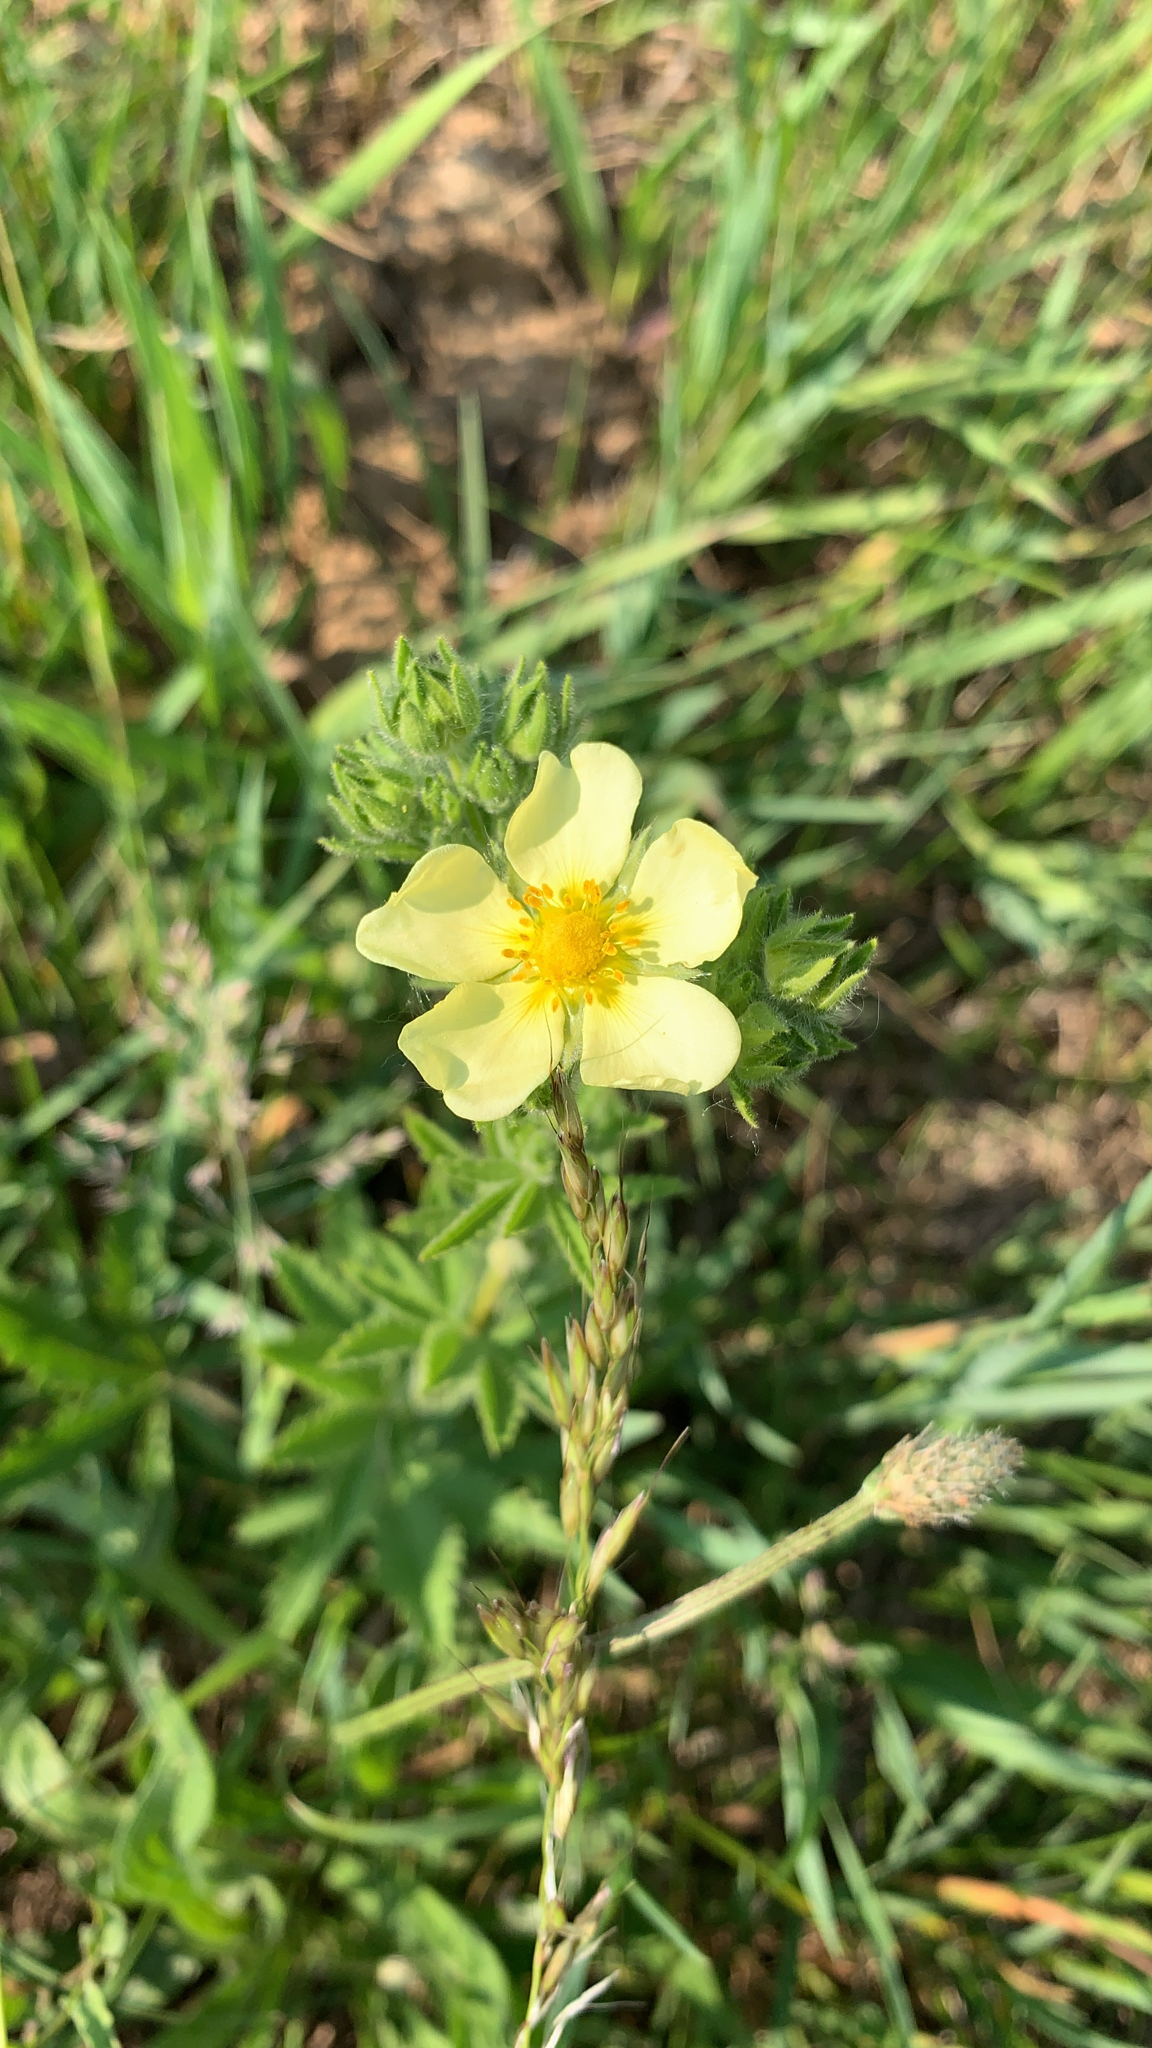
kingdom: Plantae
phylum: Tracheophyta
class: Magnoliopsida
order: Rosales
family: Rosaceae
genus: Potentilla
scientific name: Potentilla recta
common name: Sulphur cinquefoil
